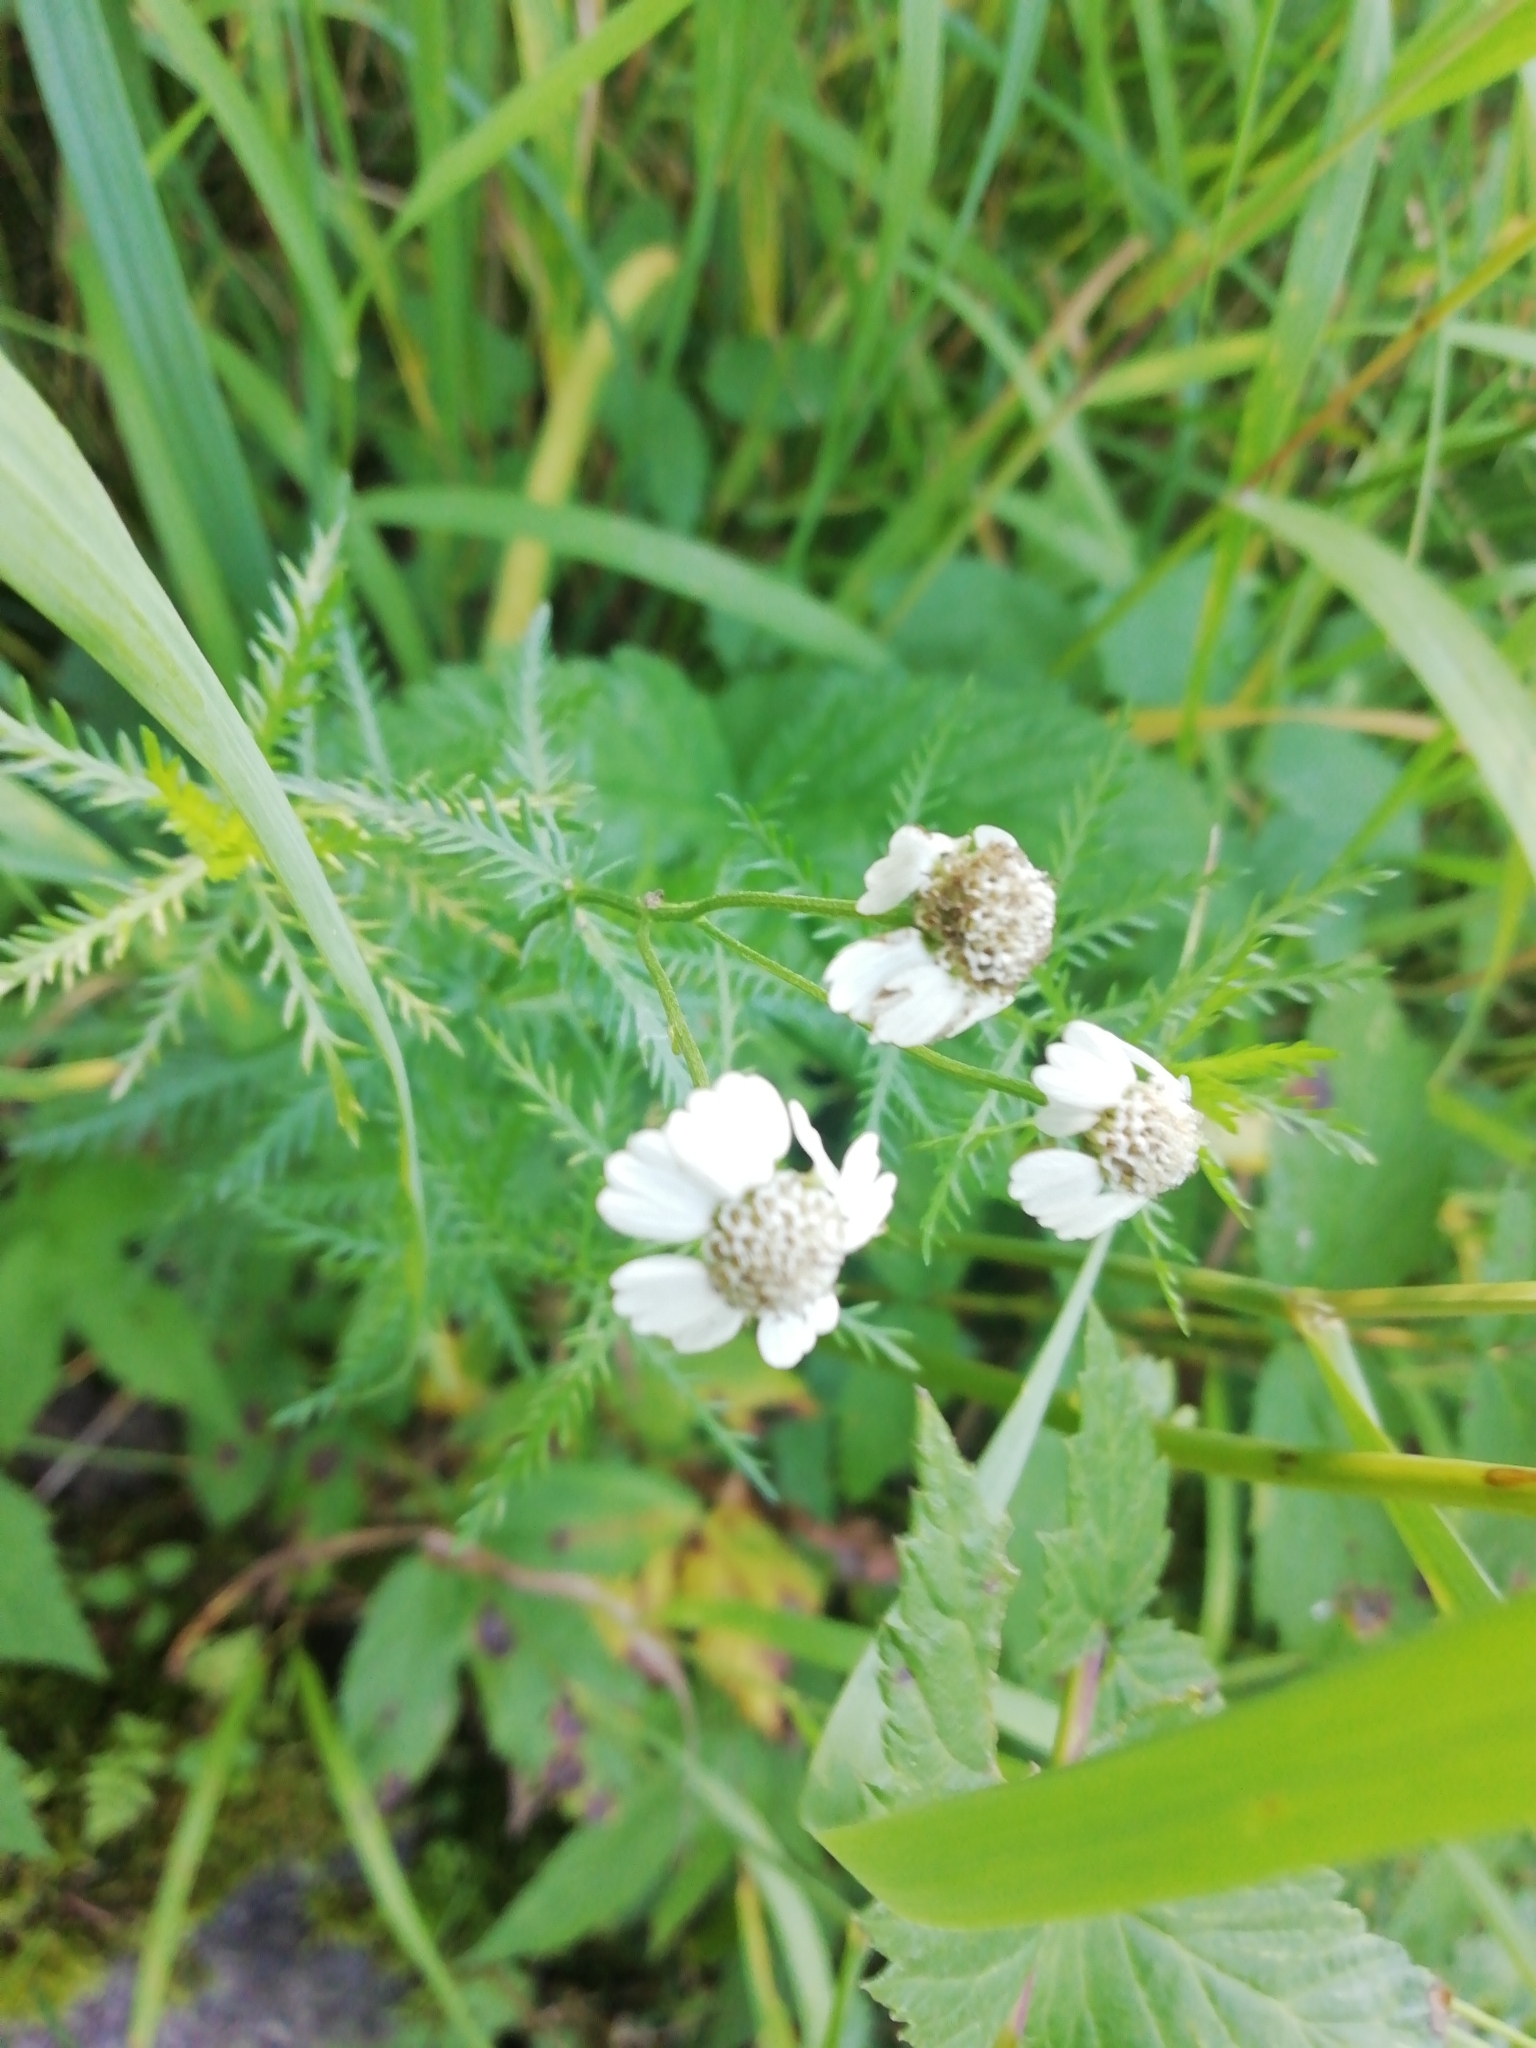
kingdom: Plantae
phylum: Tracheophyta
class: Magnoliopsida
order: Asterales
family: Asteraceae
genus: Achillea
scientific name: Achillea impatiens
